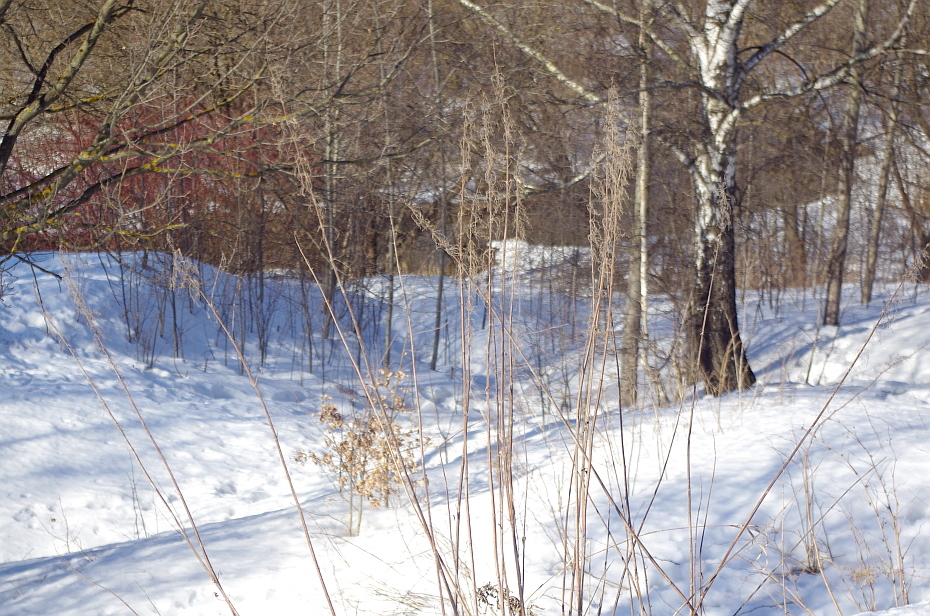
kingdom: Plantae
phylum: Tracheophyta
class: Magnoliopsida
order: Rosales
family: Urticaceae
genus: Urtica
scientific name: Urtica dioica
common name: Common nettle
